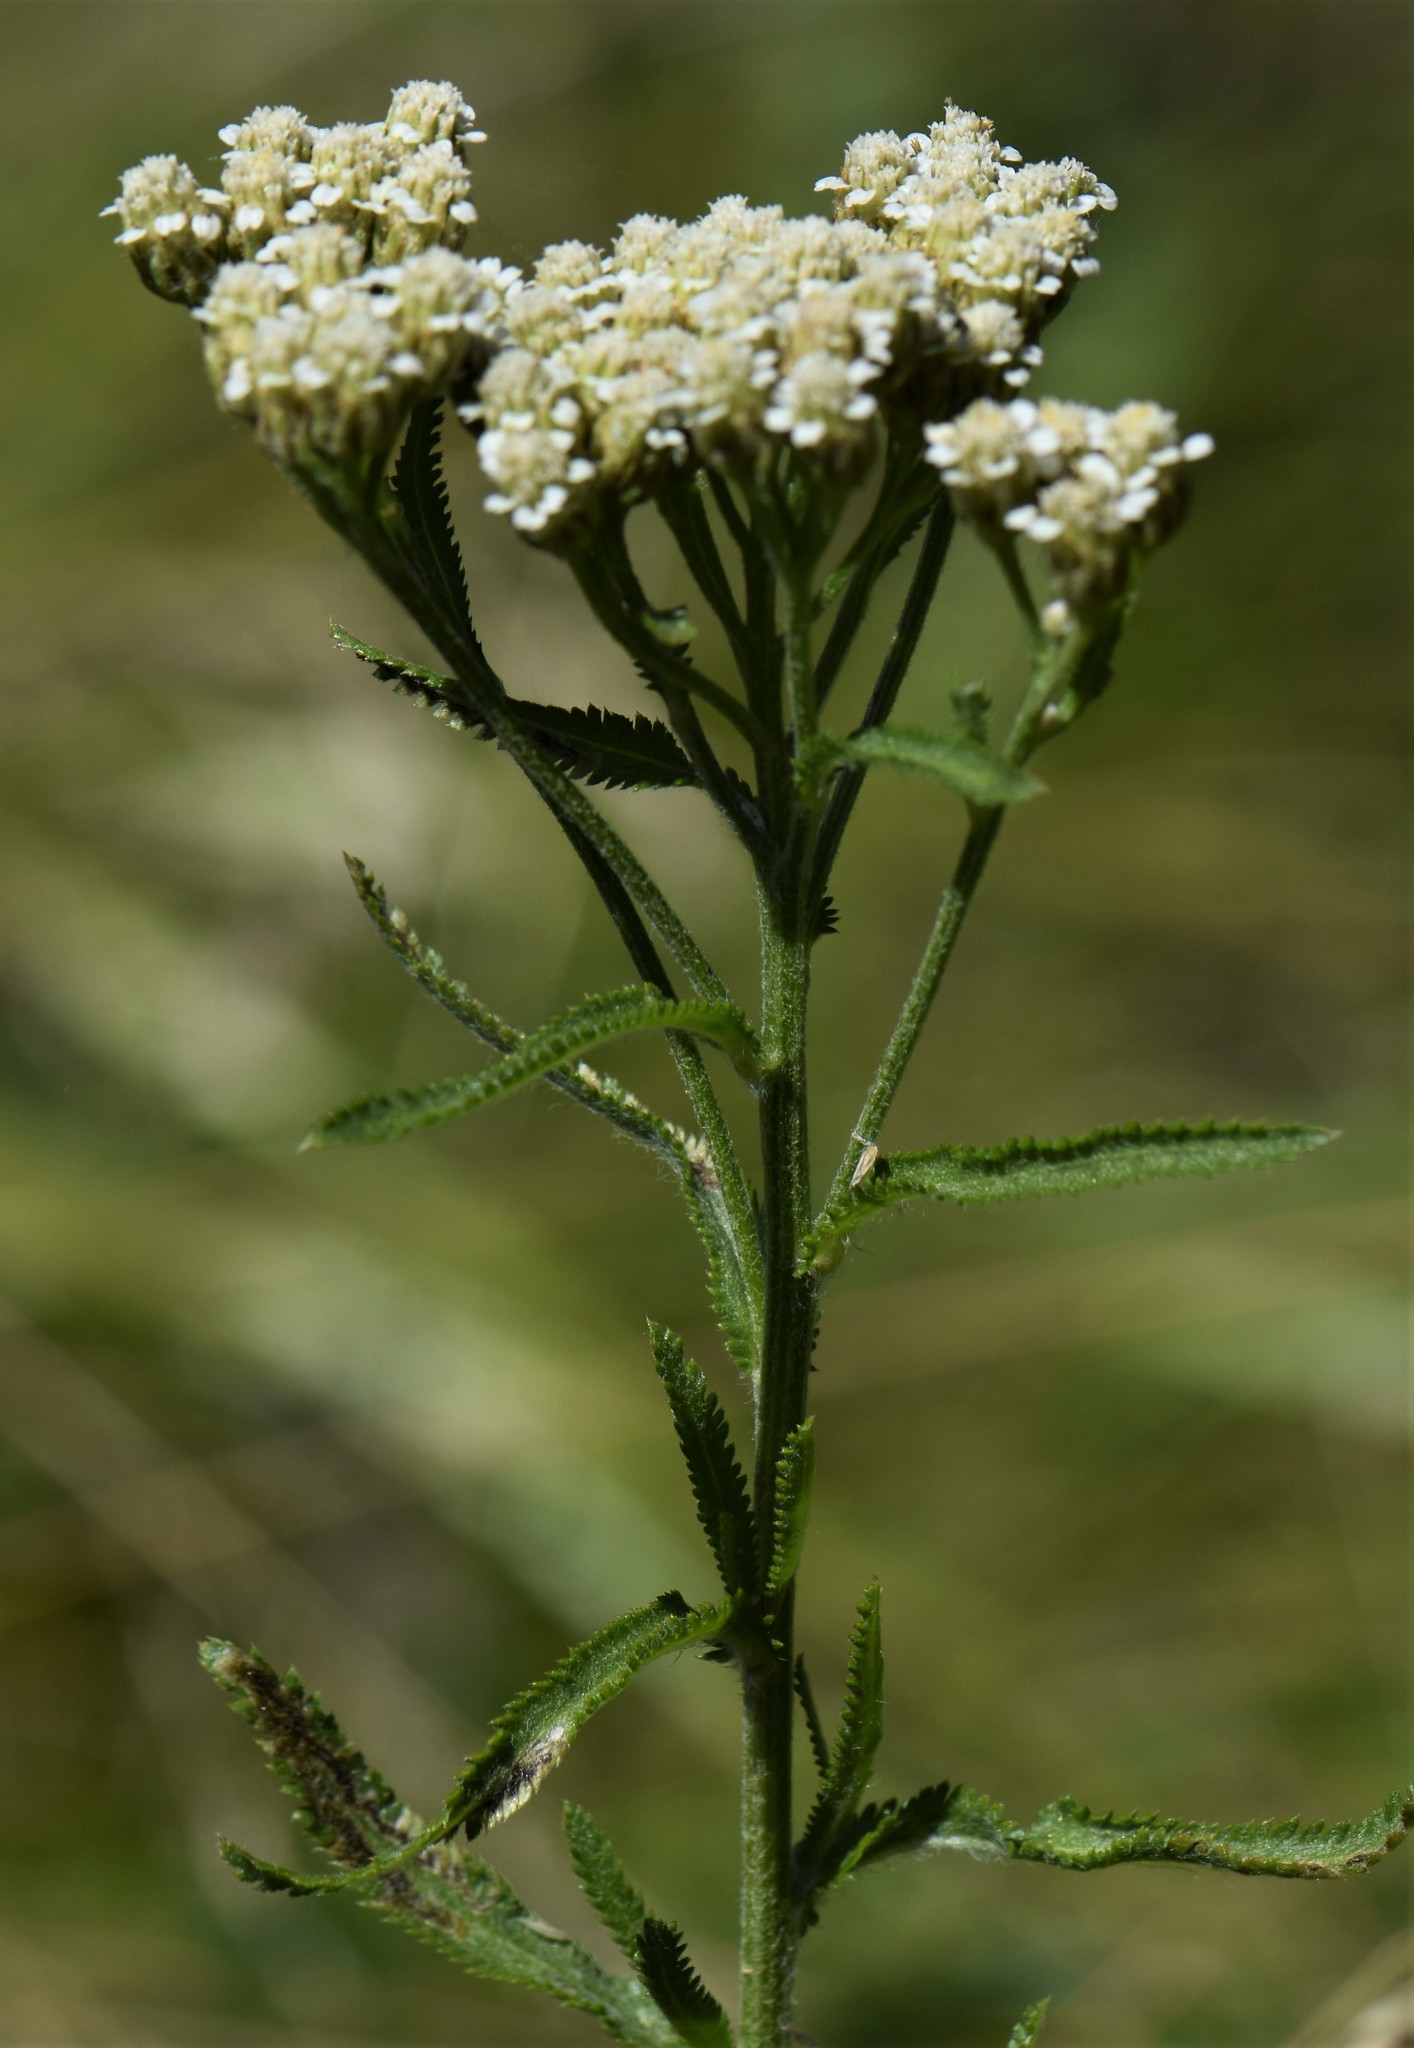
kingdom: Plantae
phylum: Tracheophyta
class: Magnoliopsida
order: Asterales
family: Asteraceae
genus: Achillea
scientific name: Achillea alpina
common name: Siberian yarrow
